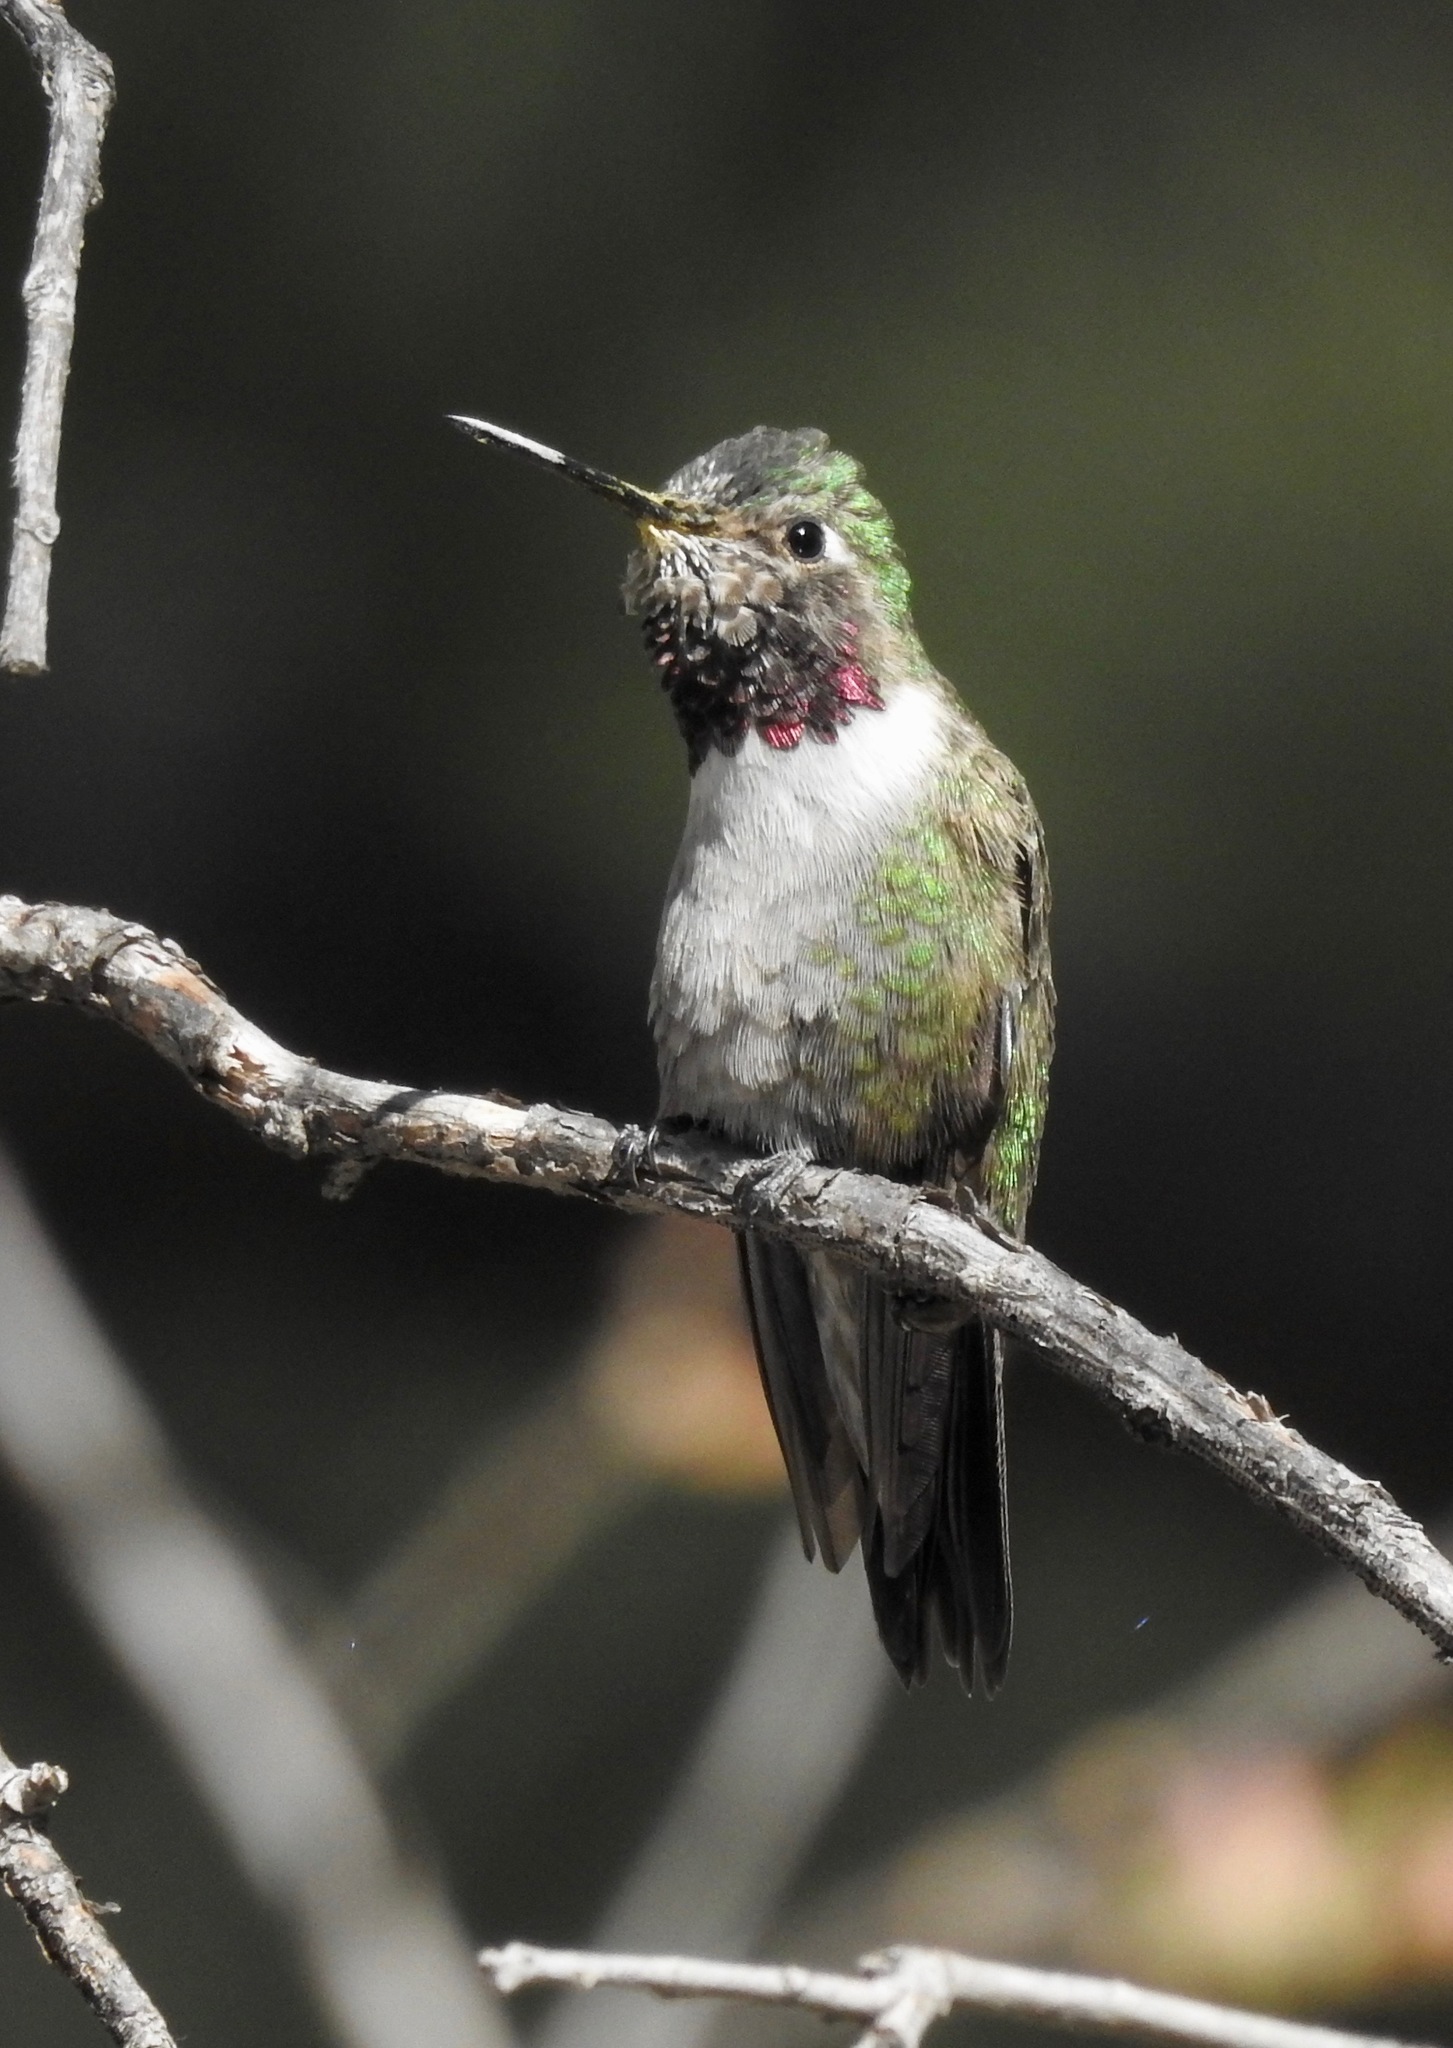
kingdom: Animalia
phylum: Chordata
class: Aves
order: Apodiformes
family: Trochilidae
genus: Selasphorus
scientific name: Selasphorus platycercus
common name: Broad-tailed hummingbird
